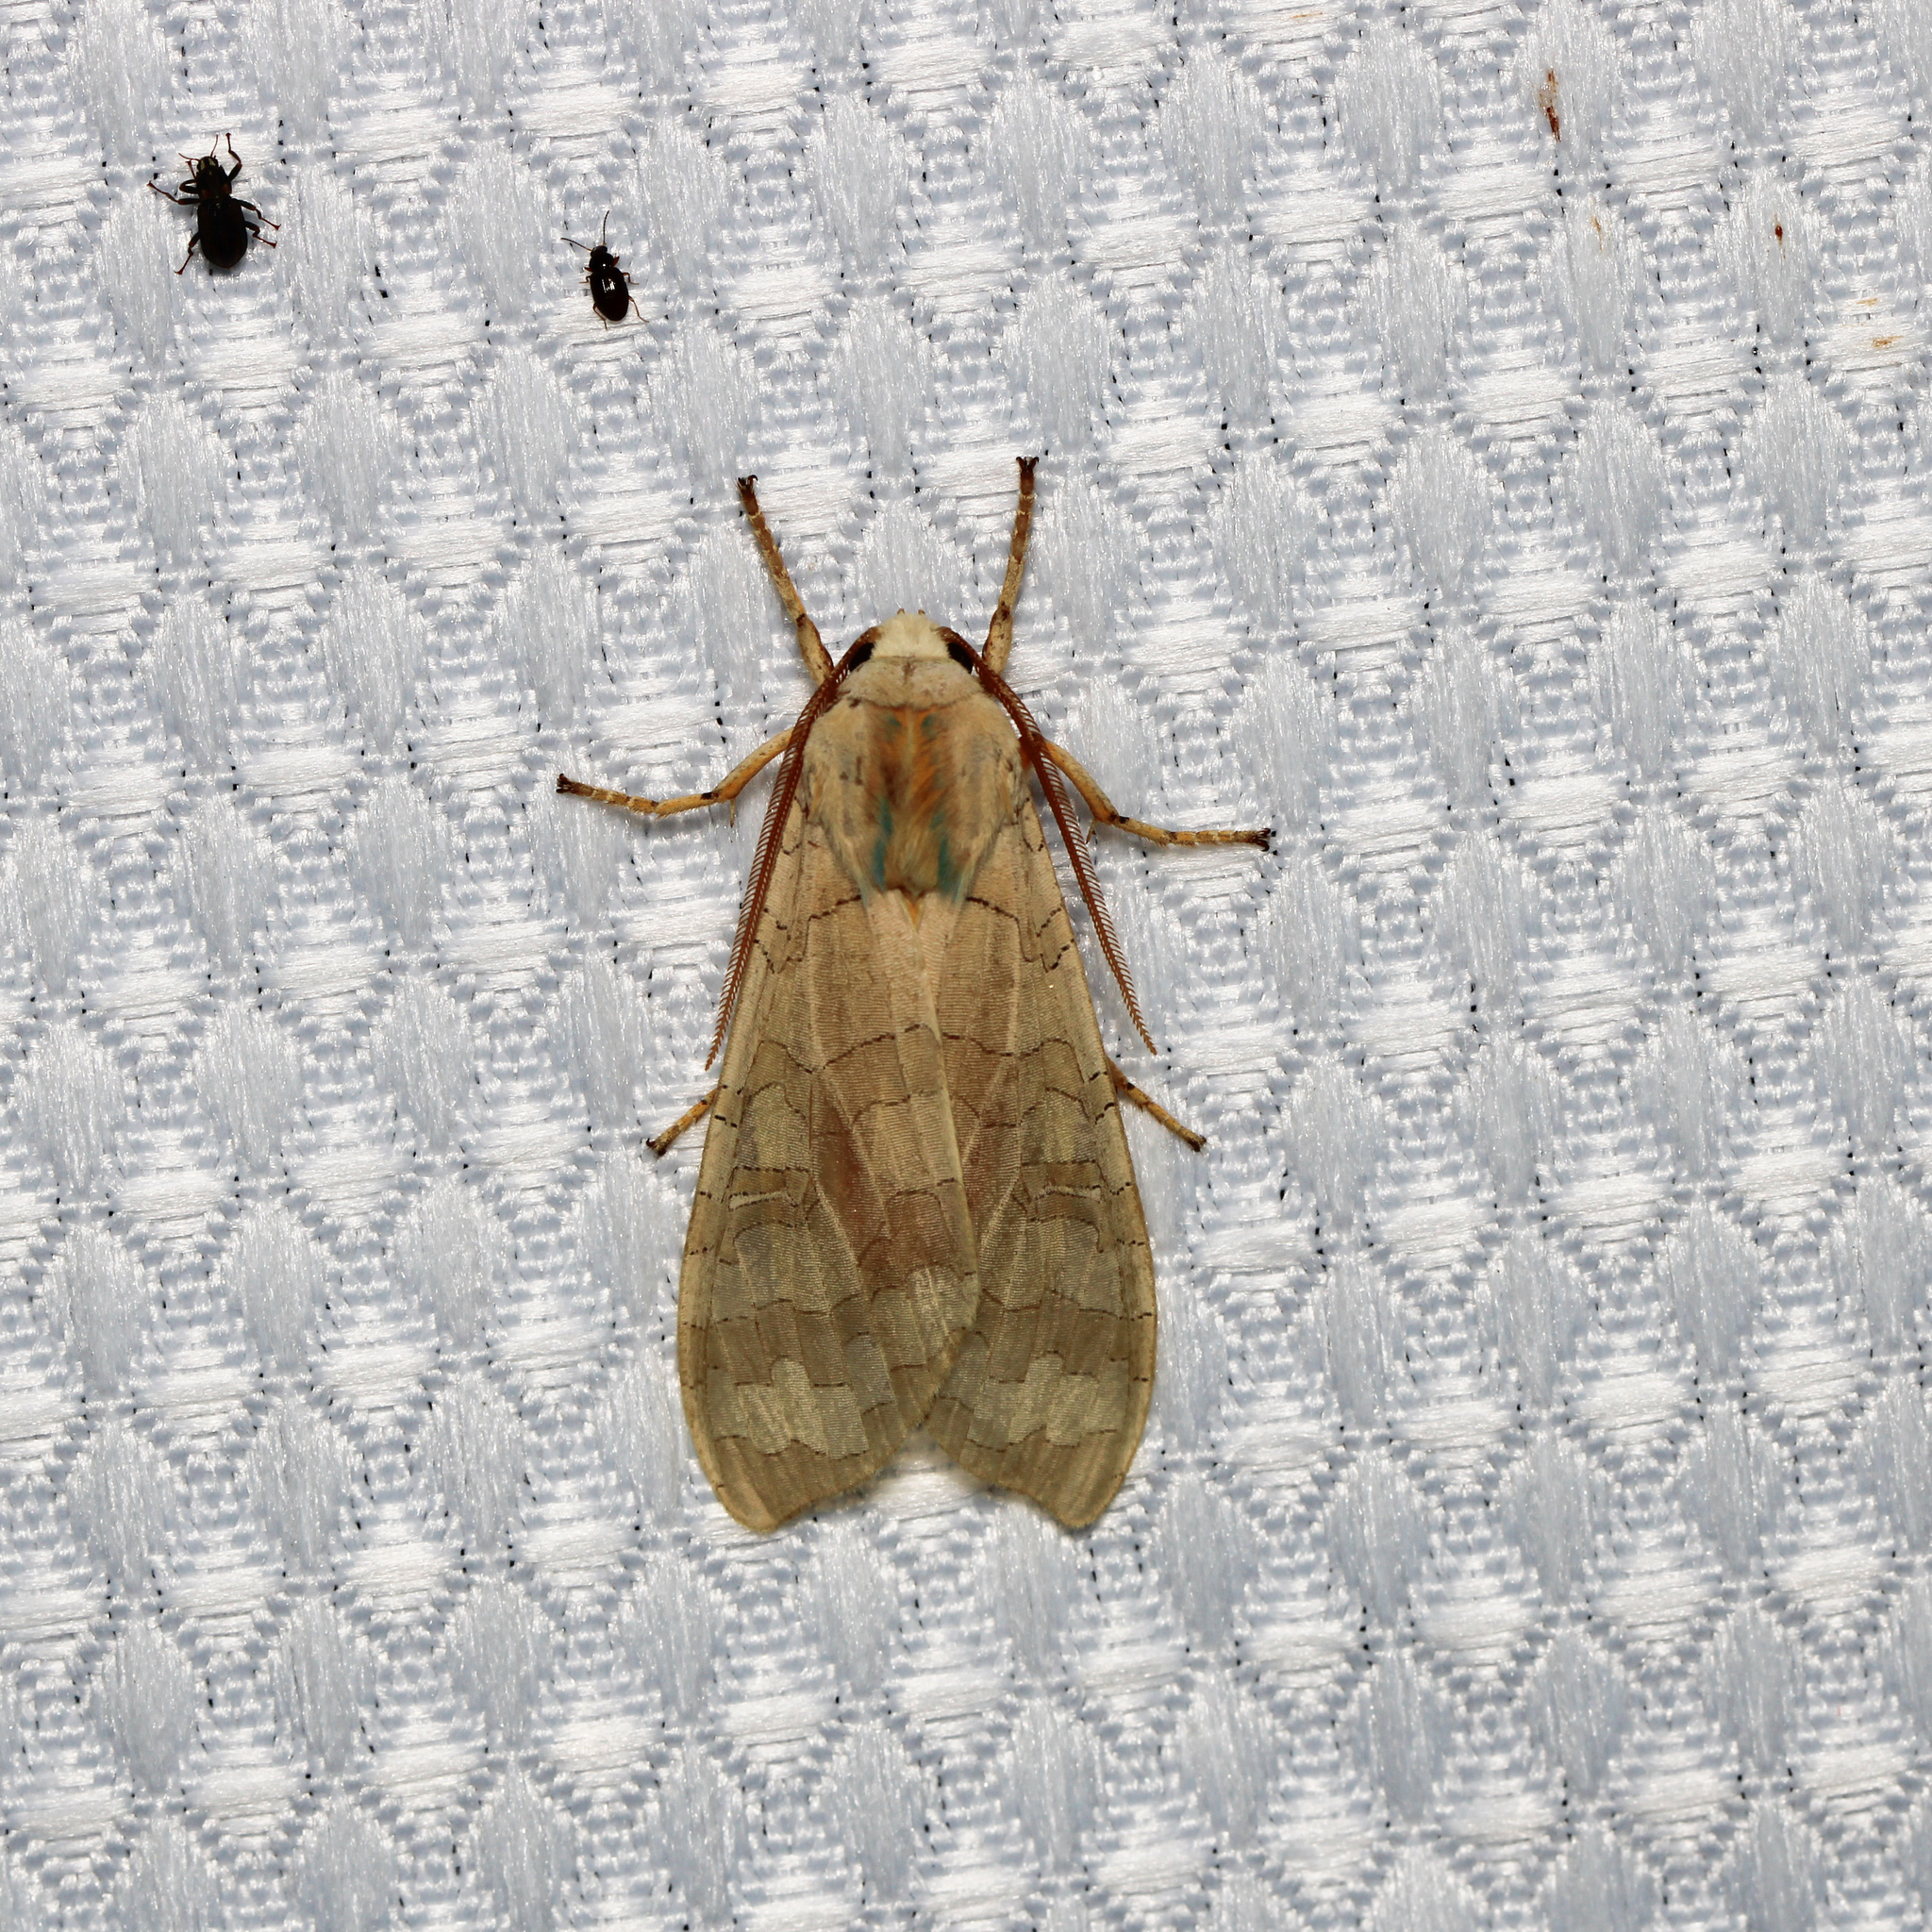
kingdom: Animalia
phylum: Arthropoda
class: Insecta
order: Lepidoptera
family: Erebidae
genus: Halysidota
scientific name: Halysidota
